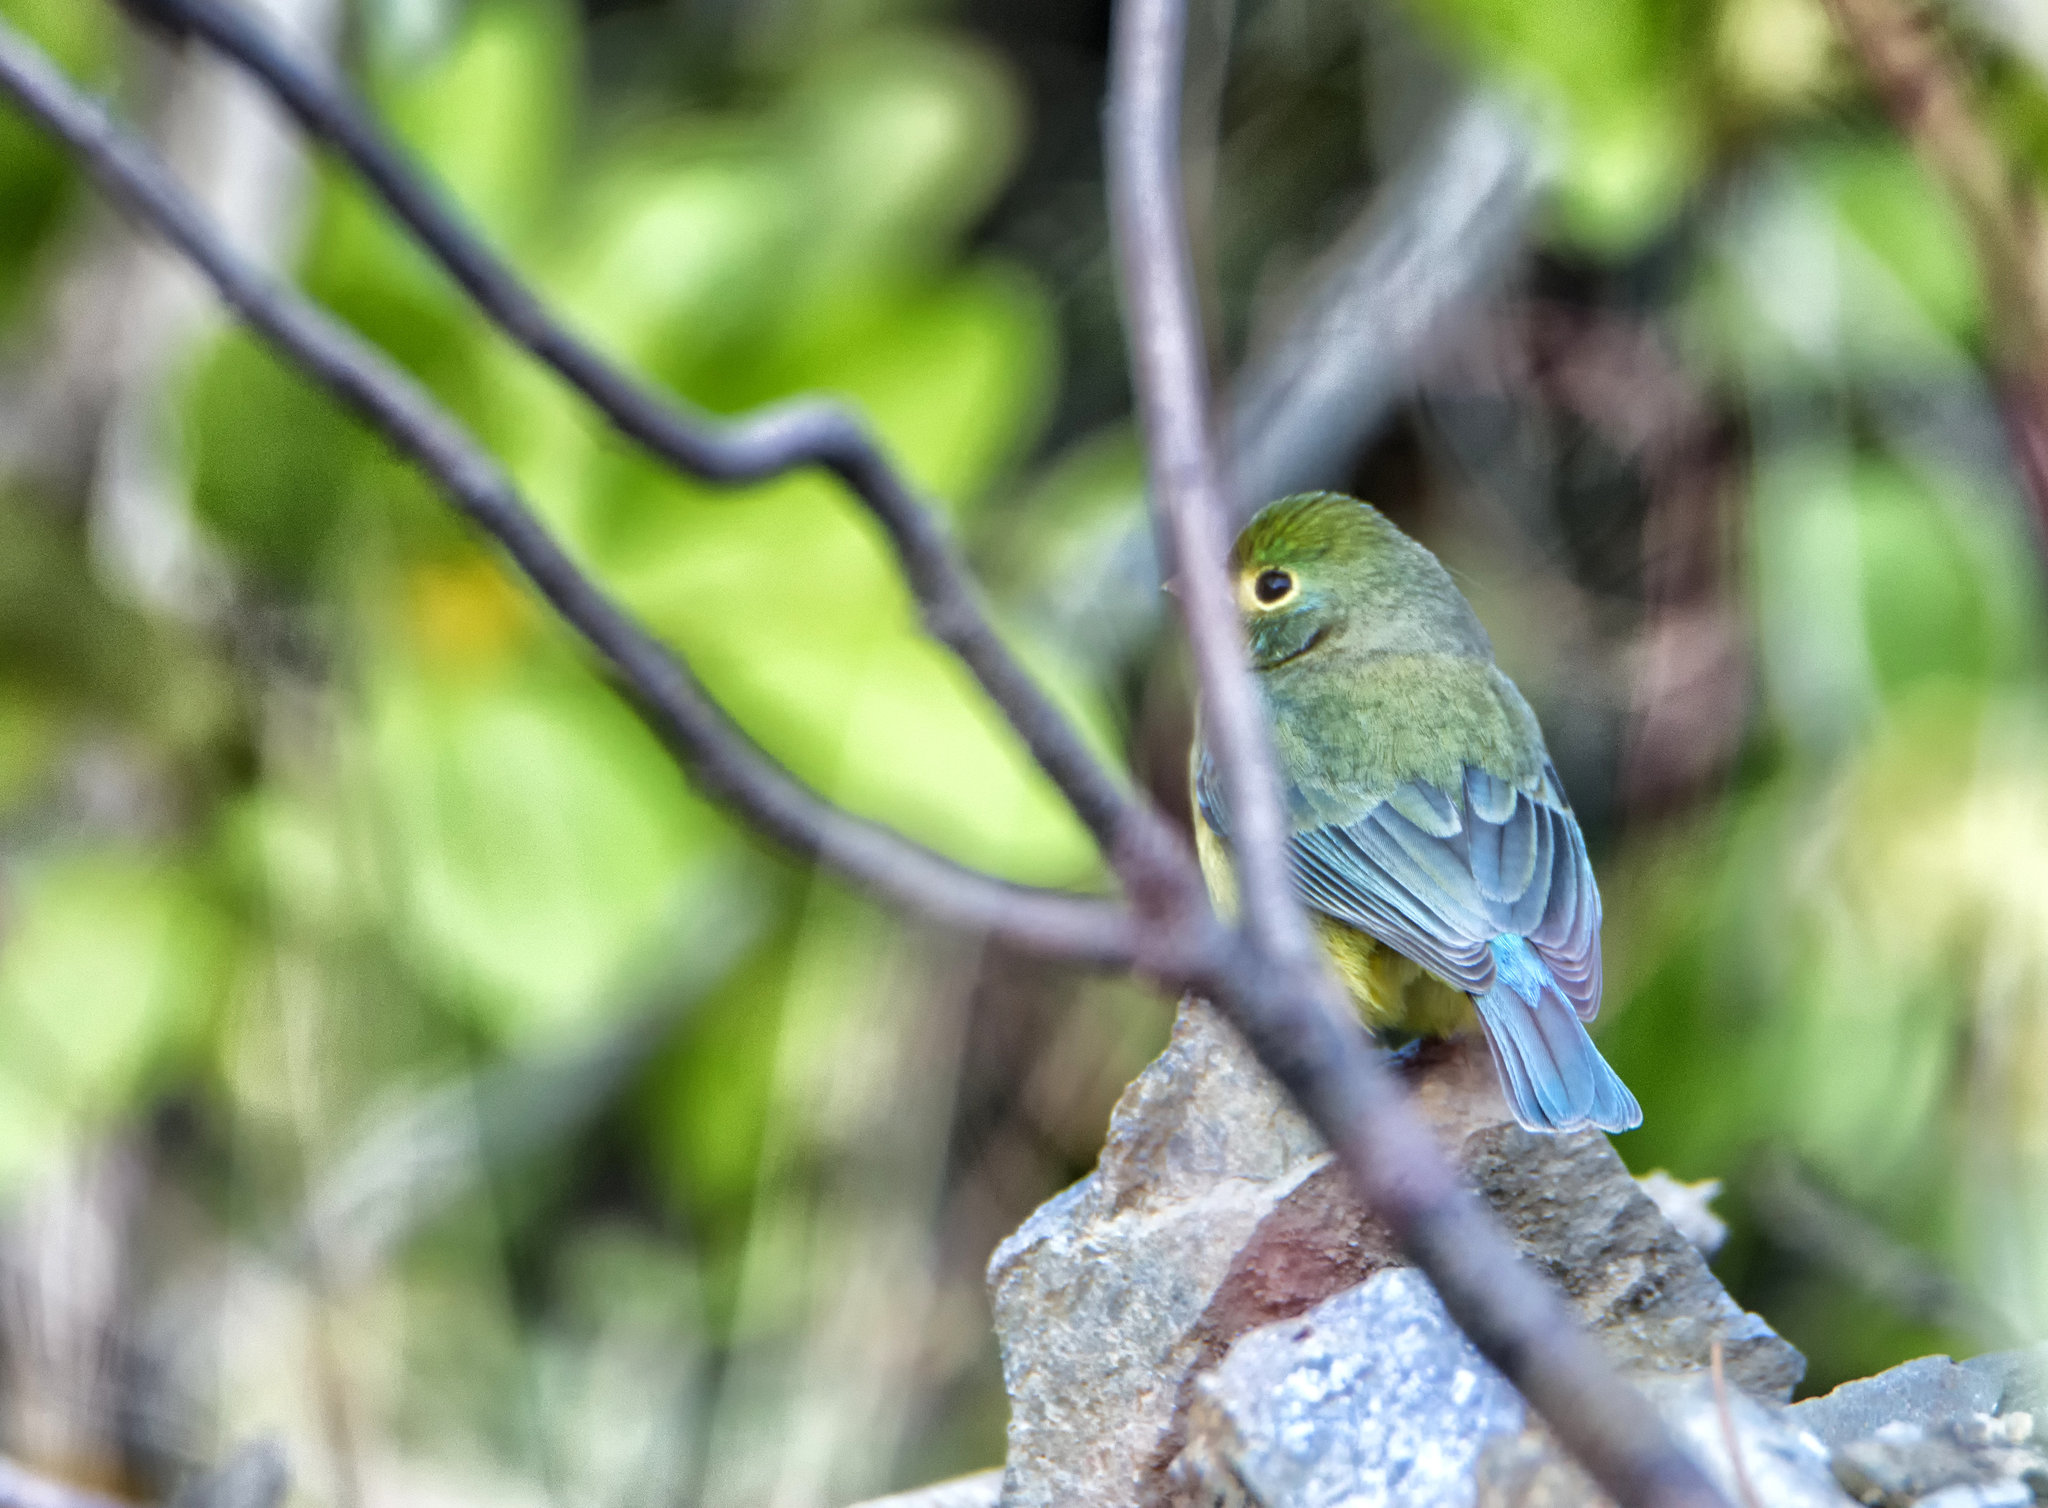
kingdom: Animalia
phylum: Chordata
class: Aves
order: Passeriformes
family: Cardinalidae
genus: Passerina
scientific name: Passerina leclancherii
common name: Orange-breasted bunting
